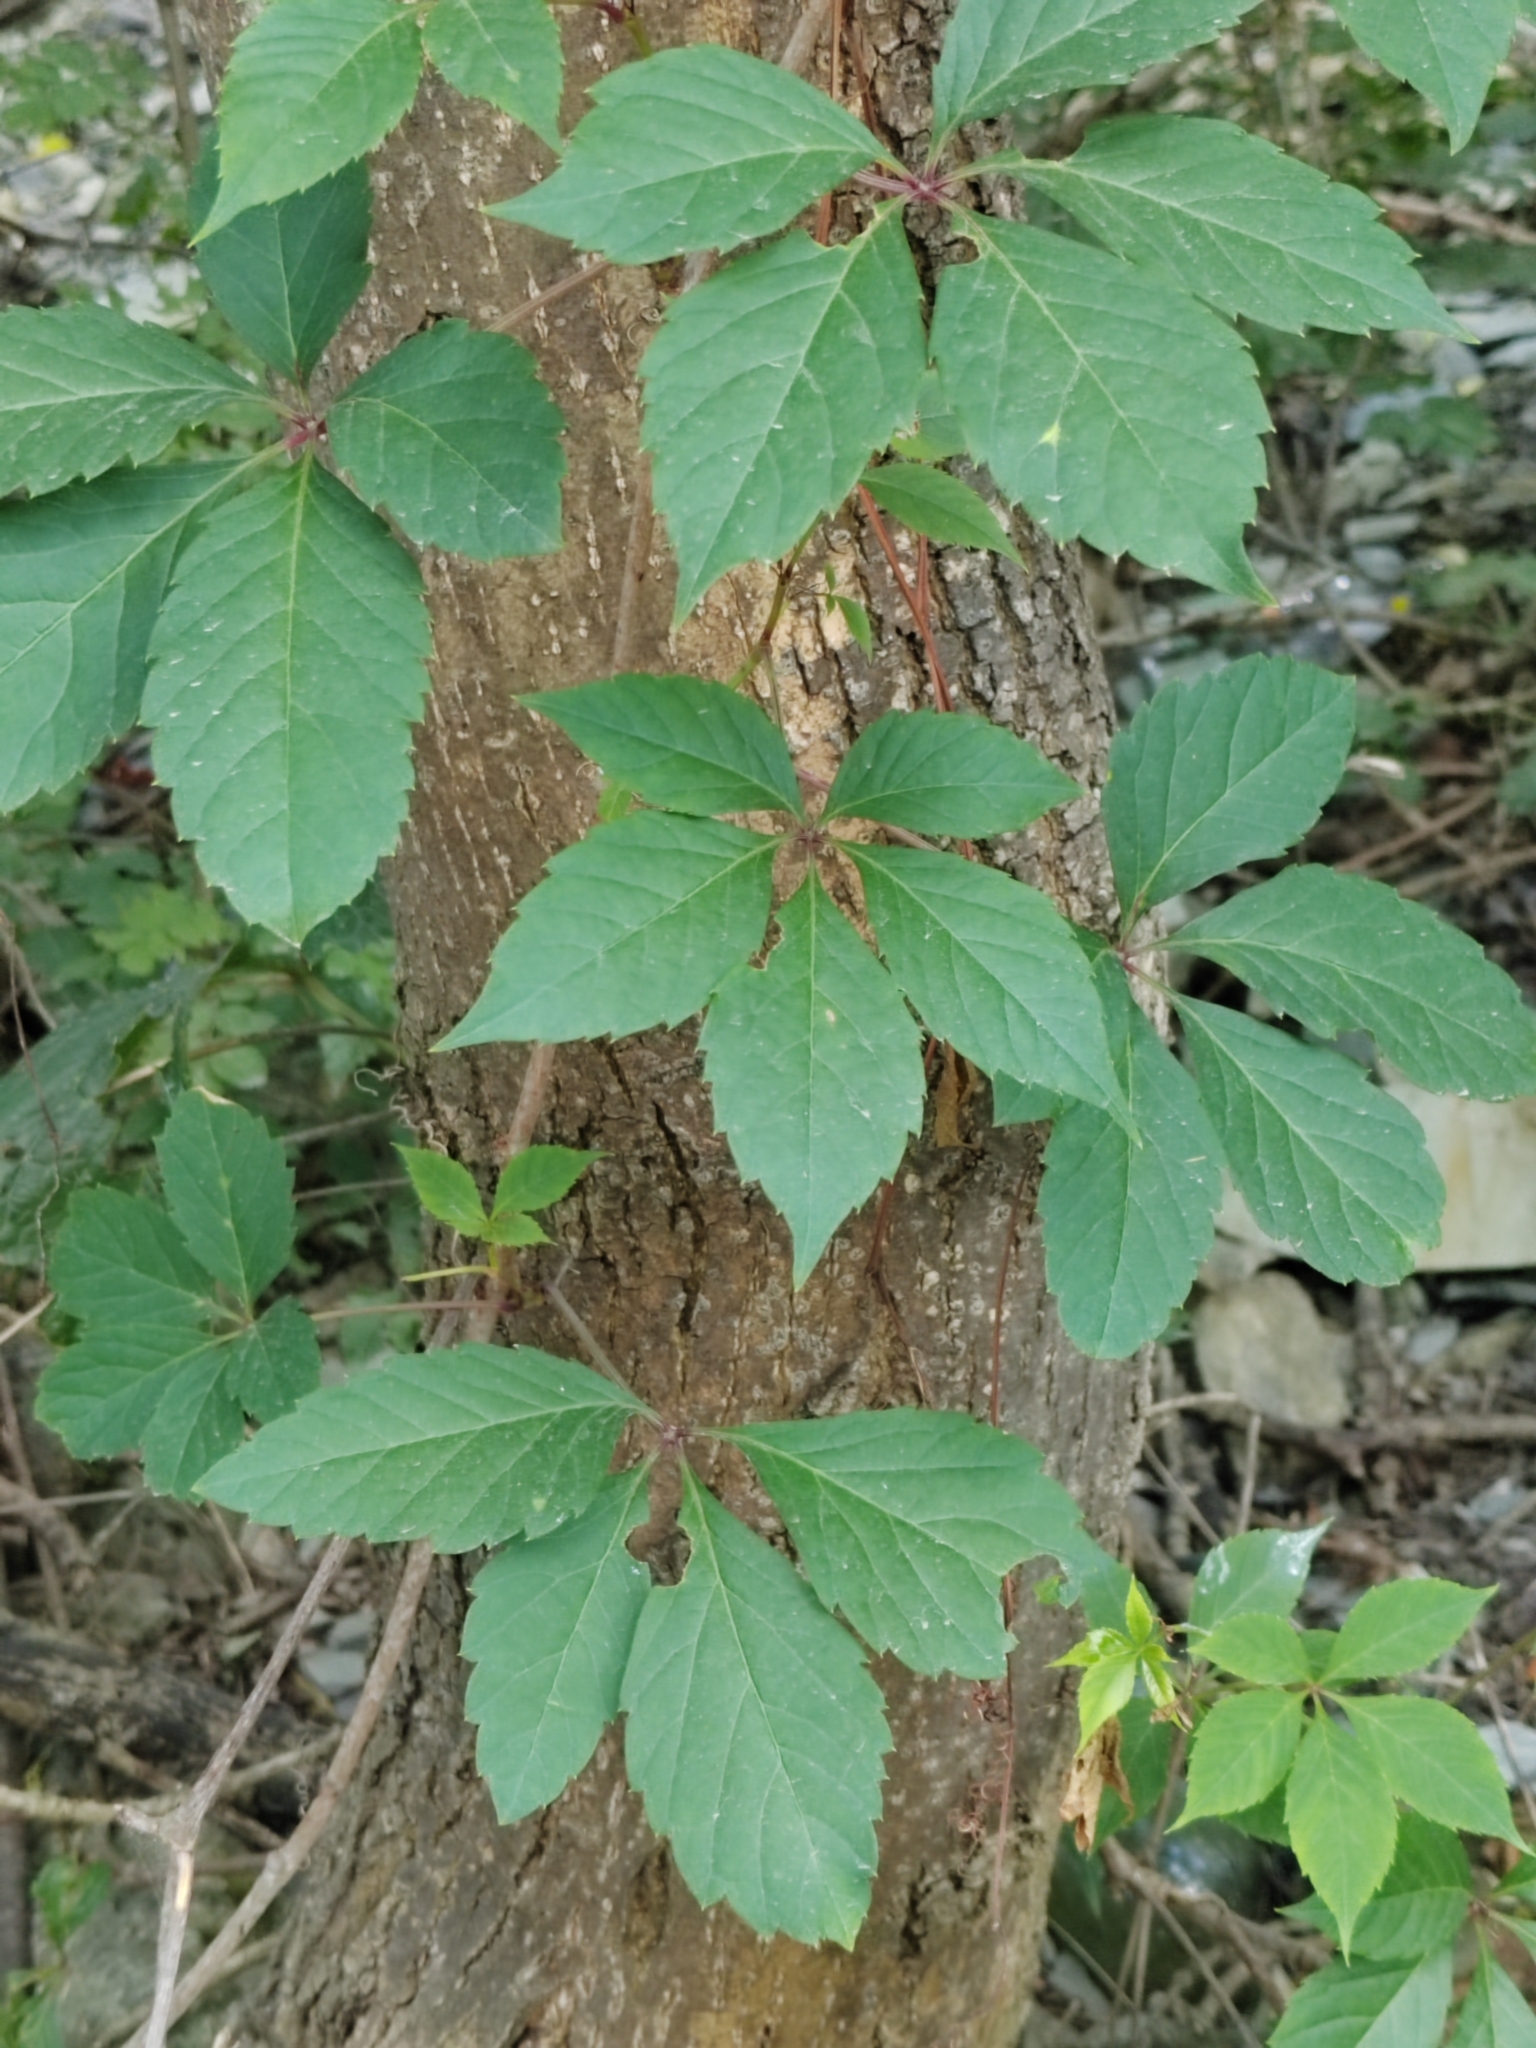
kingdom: Plantae
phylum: Tracheophyta
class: Magnoliopsida
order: Vitales
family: Vitaceae
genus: Parthenocissus
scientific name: Parthenocissus inserta
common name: False virginia-creeper
